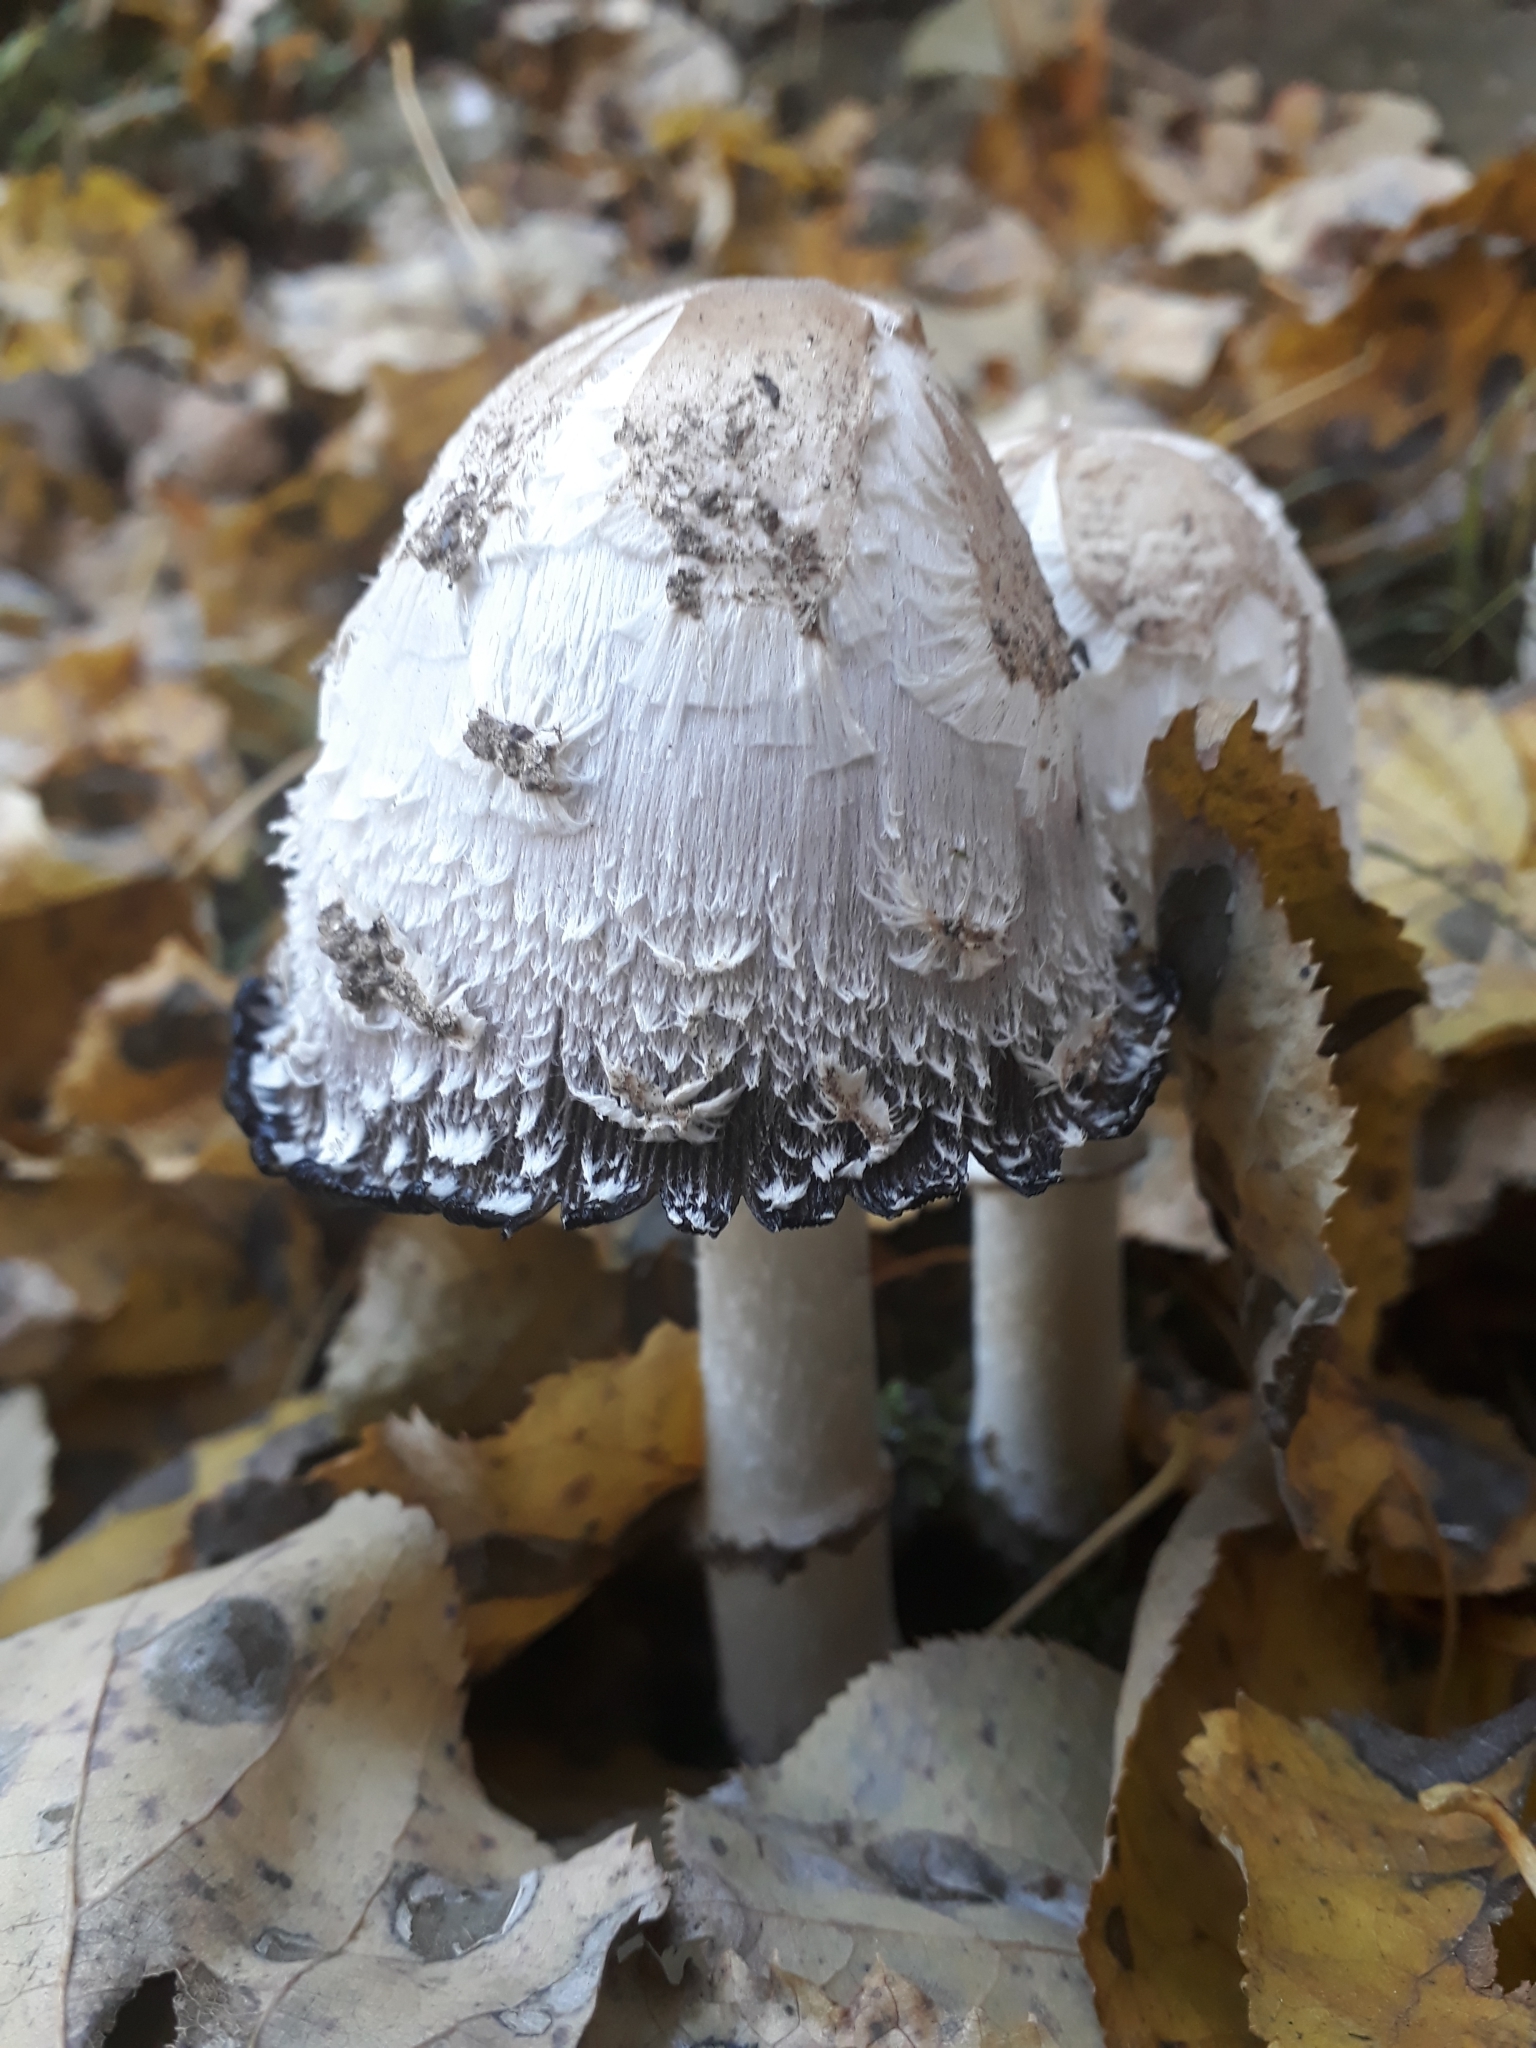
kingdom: Fungi
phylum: Basidiomycota
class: Agaricomycetes
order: Agaricales
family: Agaricaceae
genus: Coprinus
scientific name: Coprinus comatus
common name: Lawyer's wig
